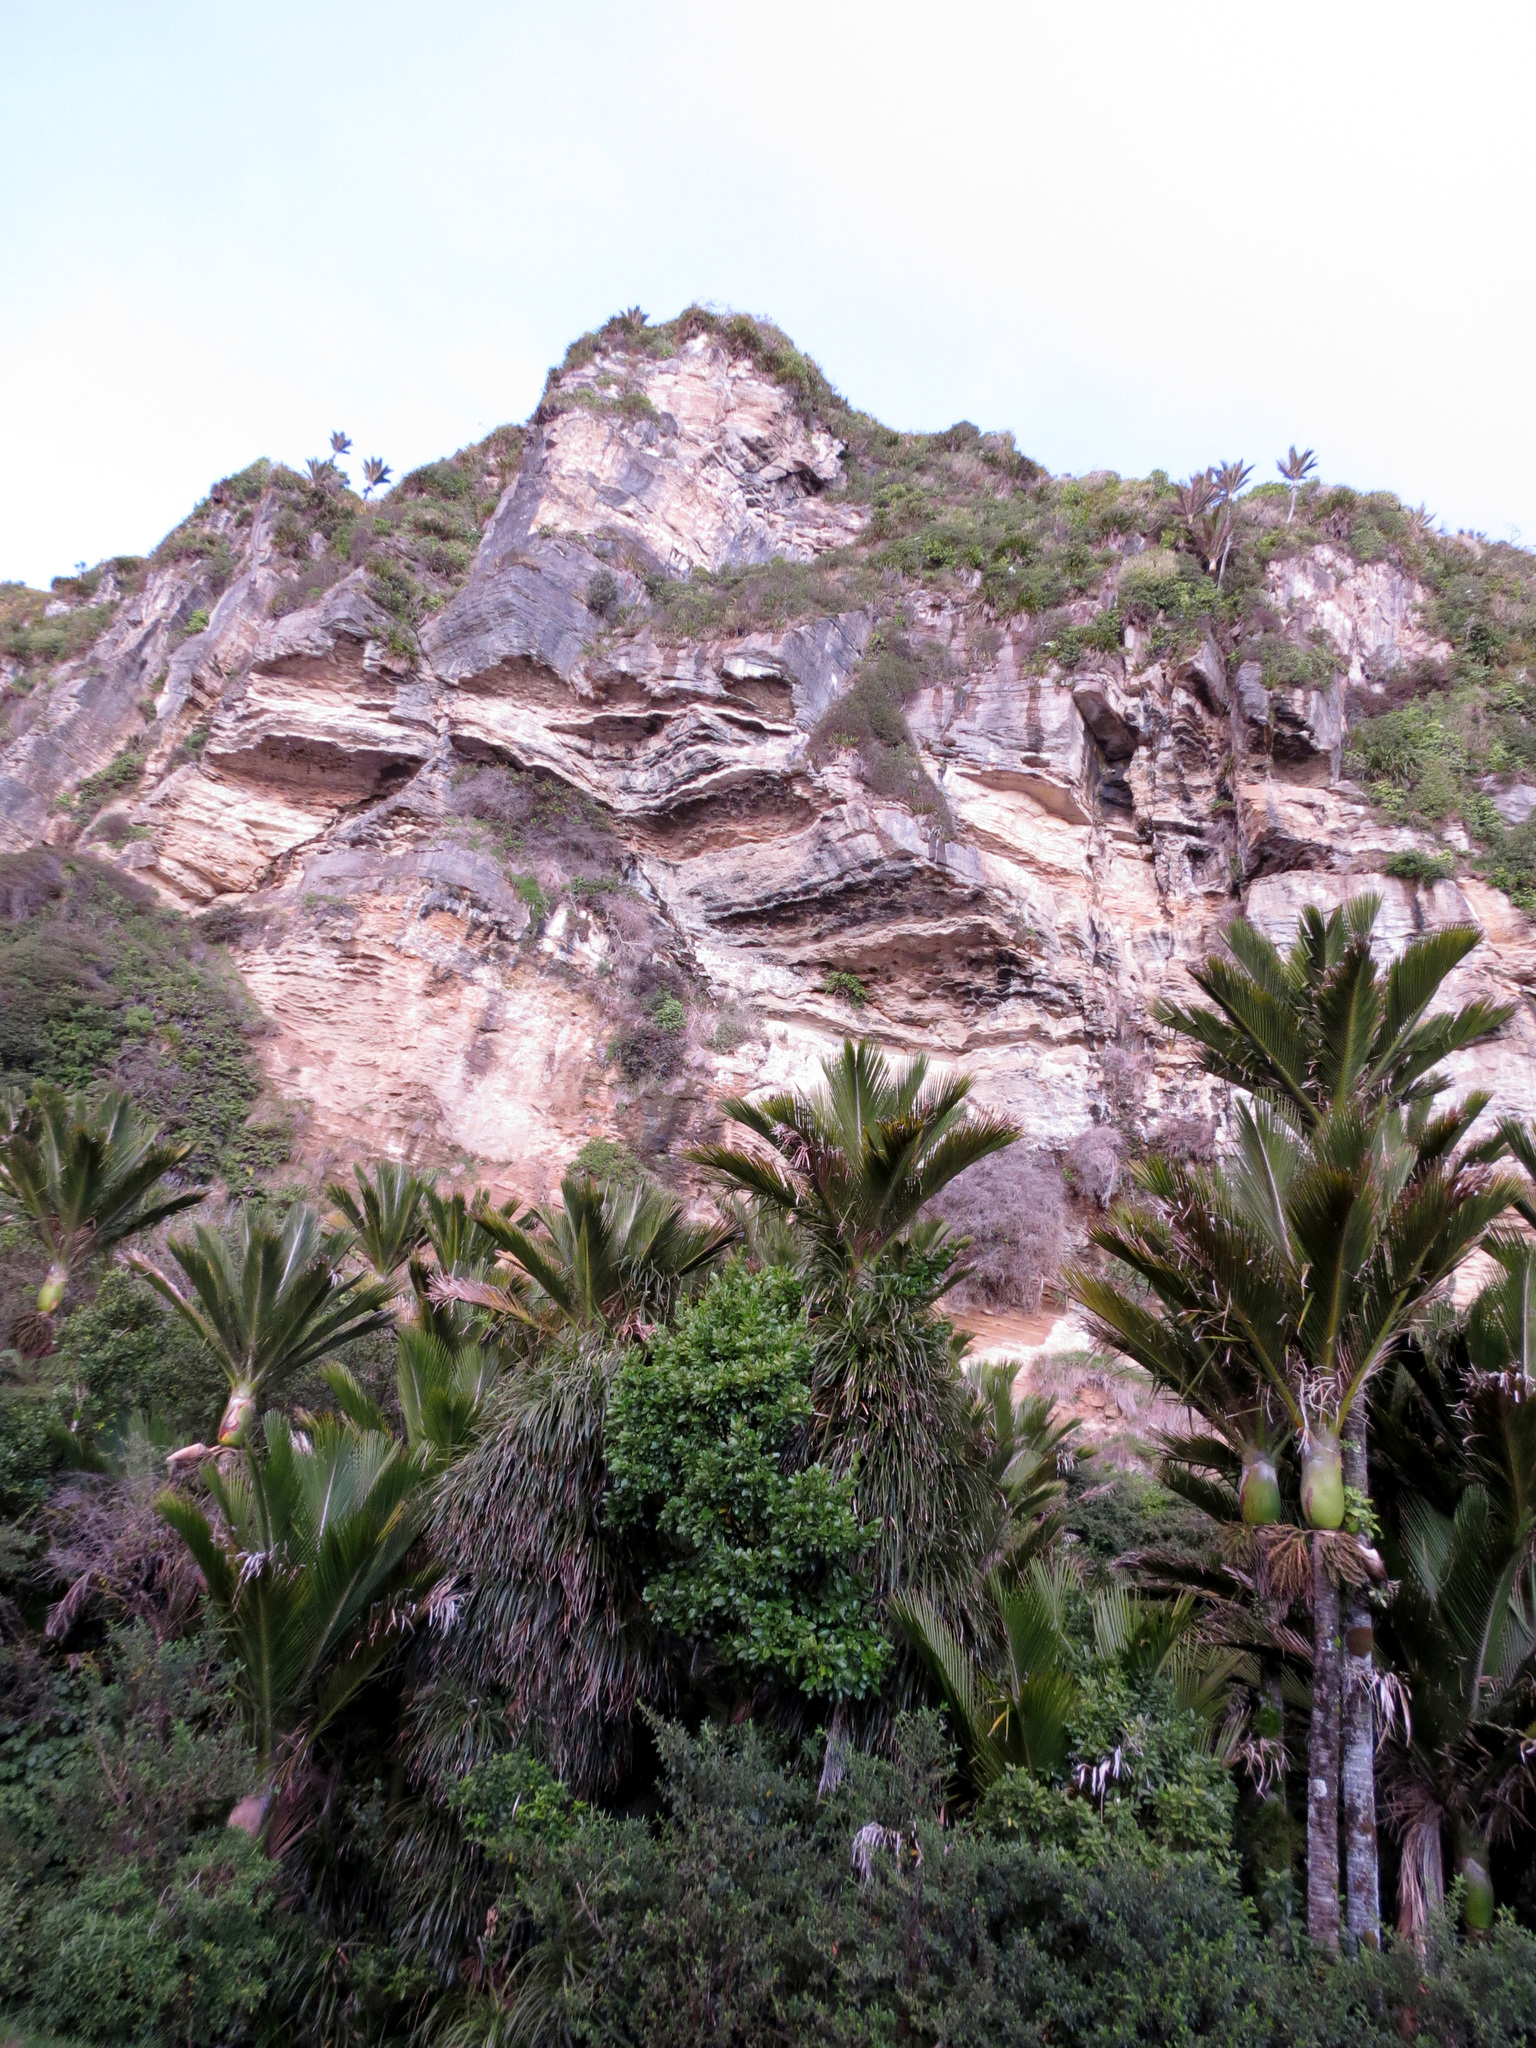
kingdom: Plantae
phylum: Tracheophyta
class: Liliopsida
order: Arecales
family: Arecaceae
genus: Rhopalostylis
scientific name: Rhopalostylis sapida
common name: Feather-duster palm
